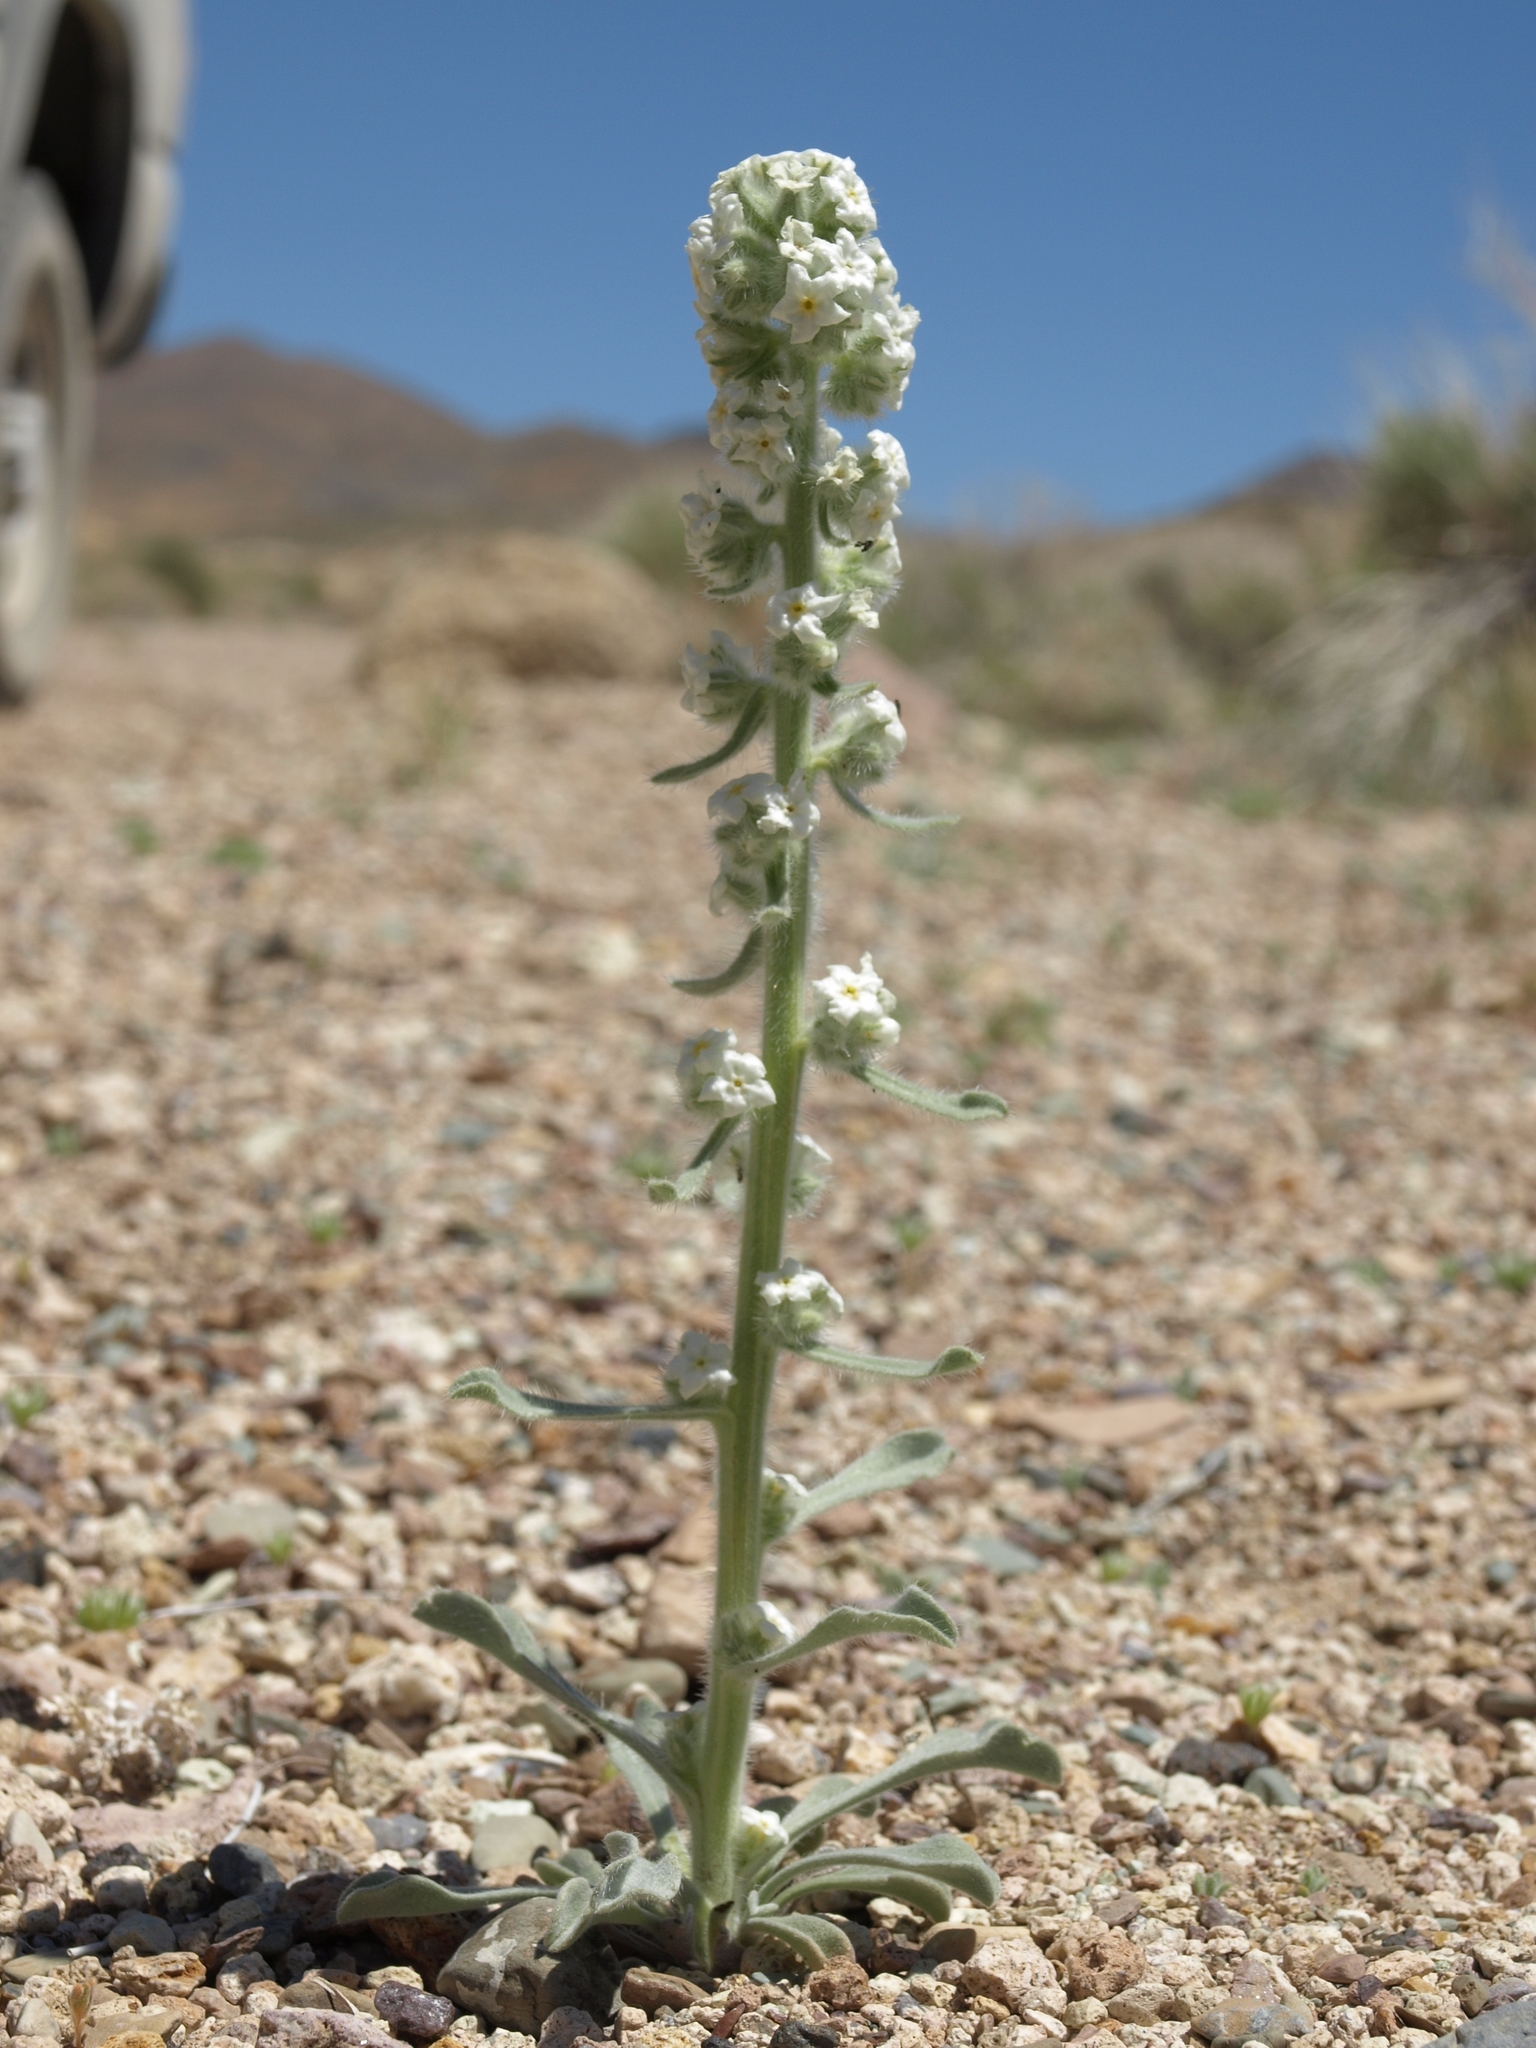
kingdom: Plantae
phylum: Tracheophyta
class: Magnoliopsida
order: Boraginales
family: Boraginaceae
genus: Oreocarya
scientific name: Oreocarya hoffmannii
